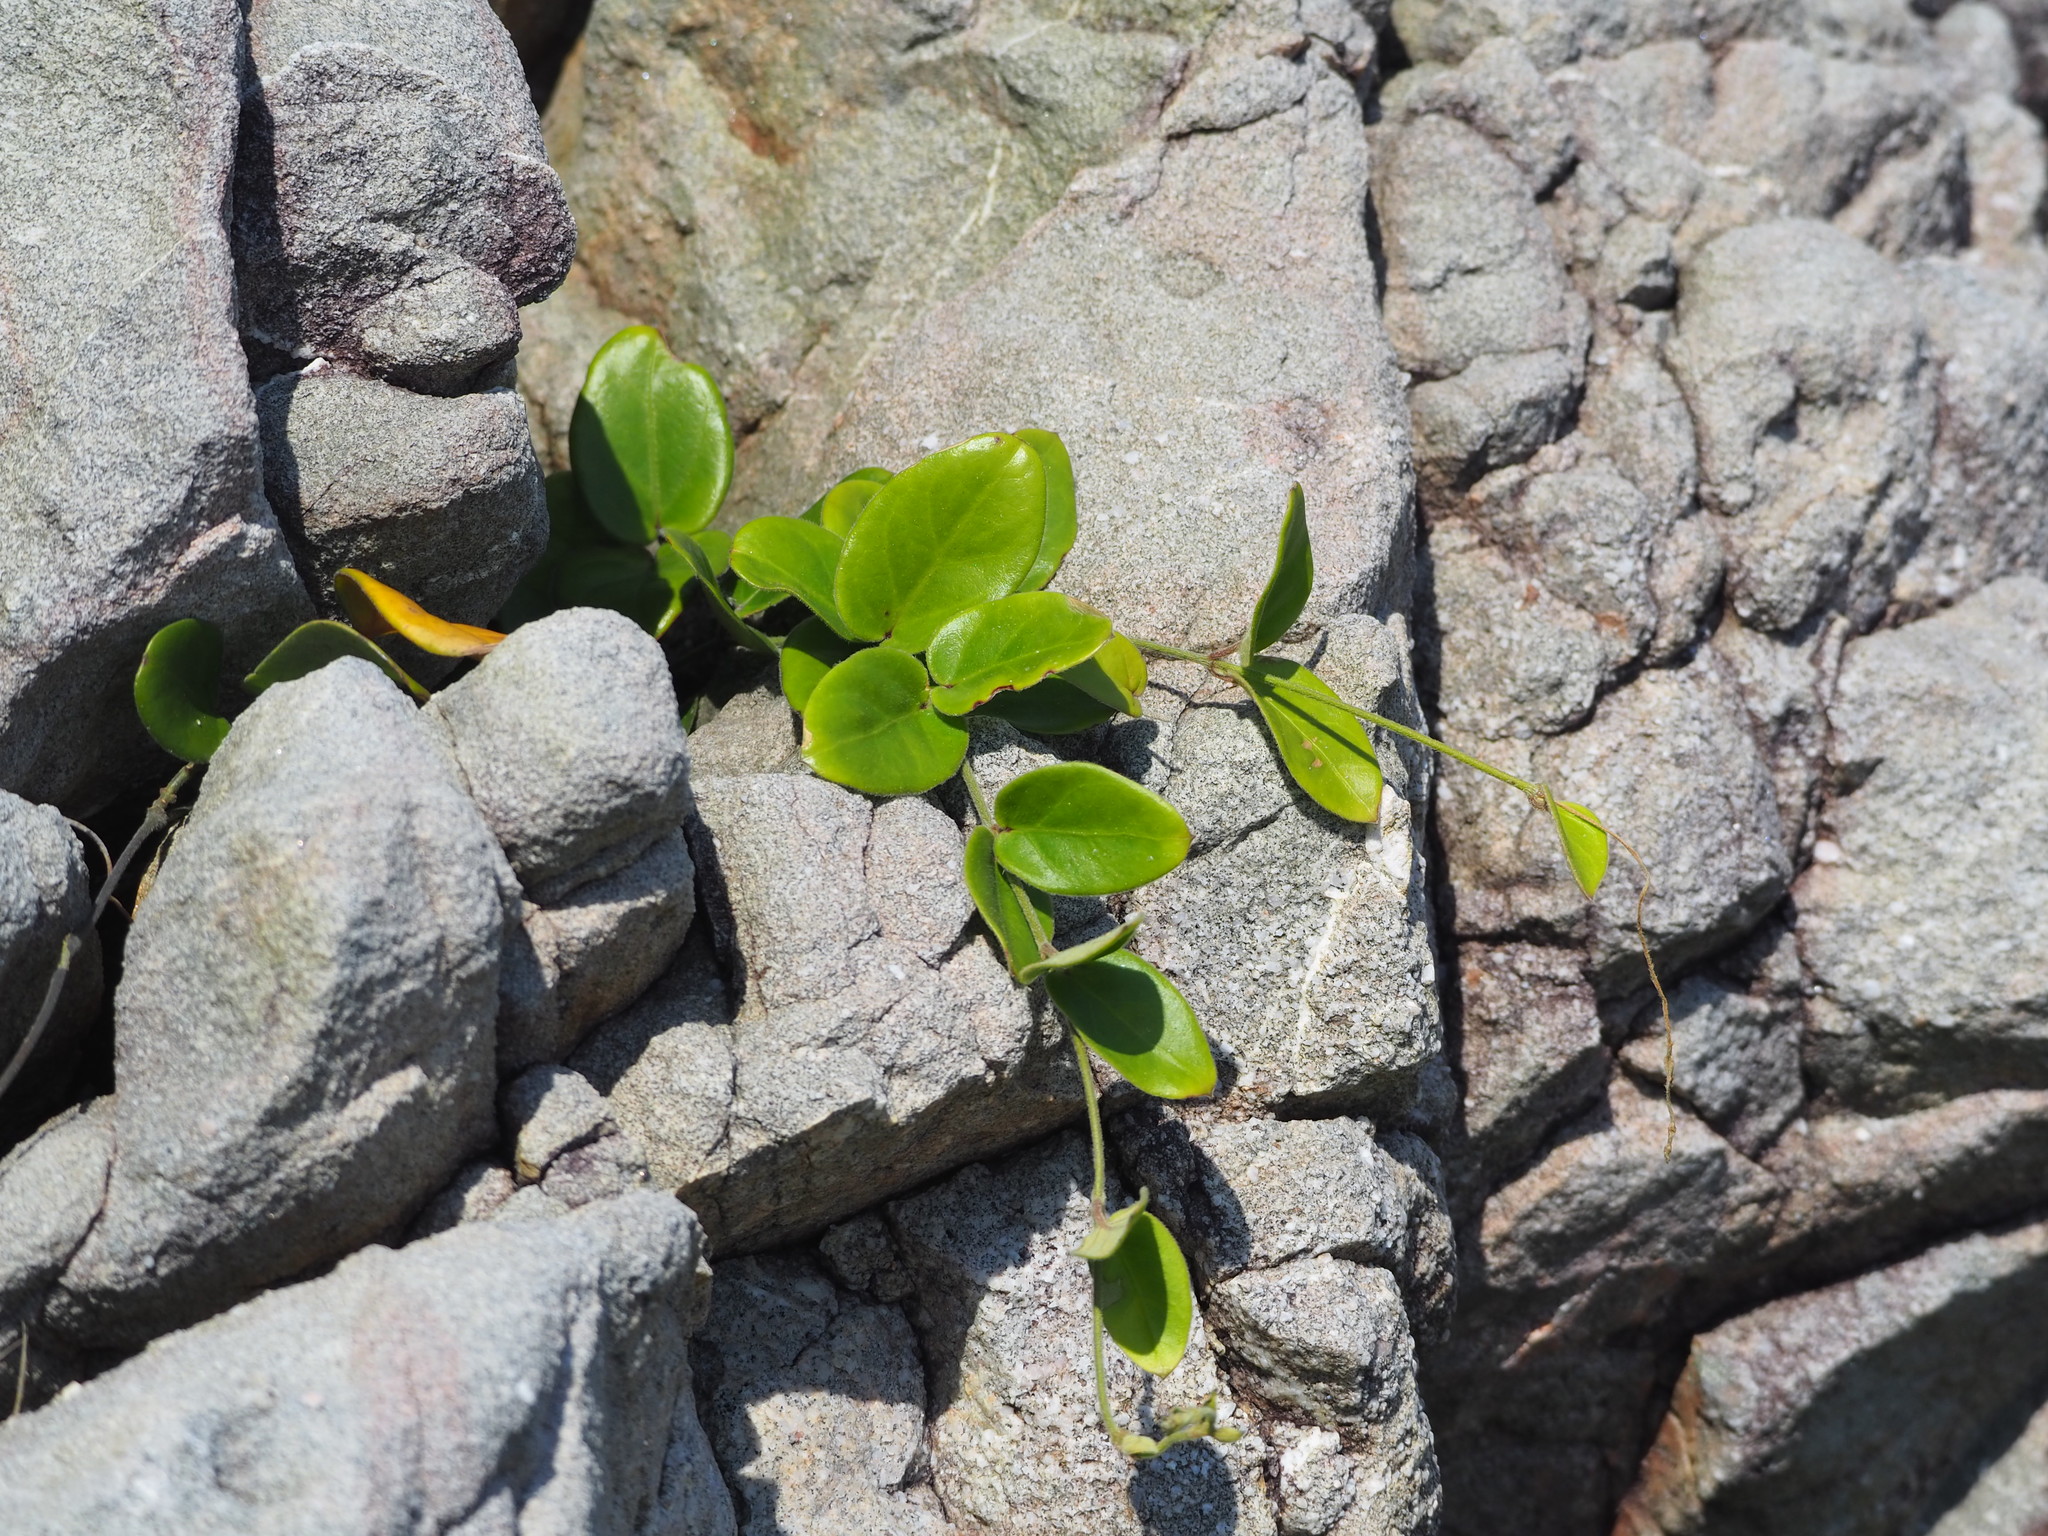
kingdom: Plantae
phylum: Tracheophyta
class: Magnoliopsida
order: Gentianales
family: Apocynaceae
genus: Vincetoxicum
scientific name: Vincetoxicum hirsutum
